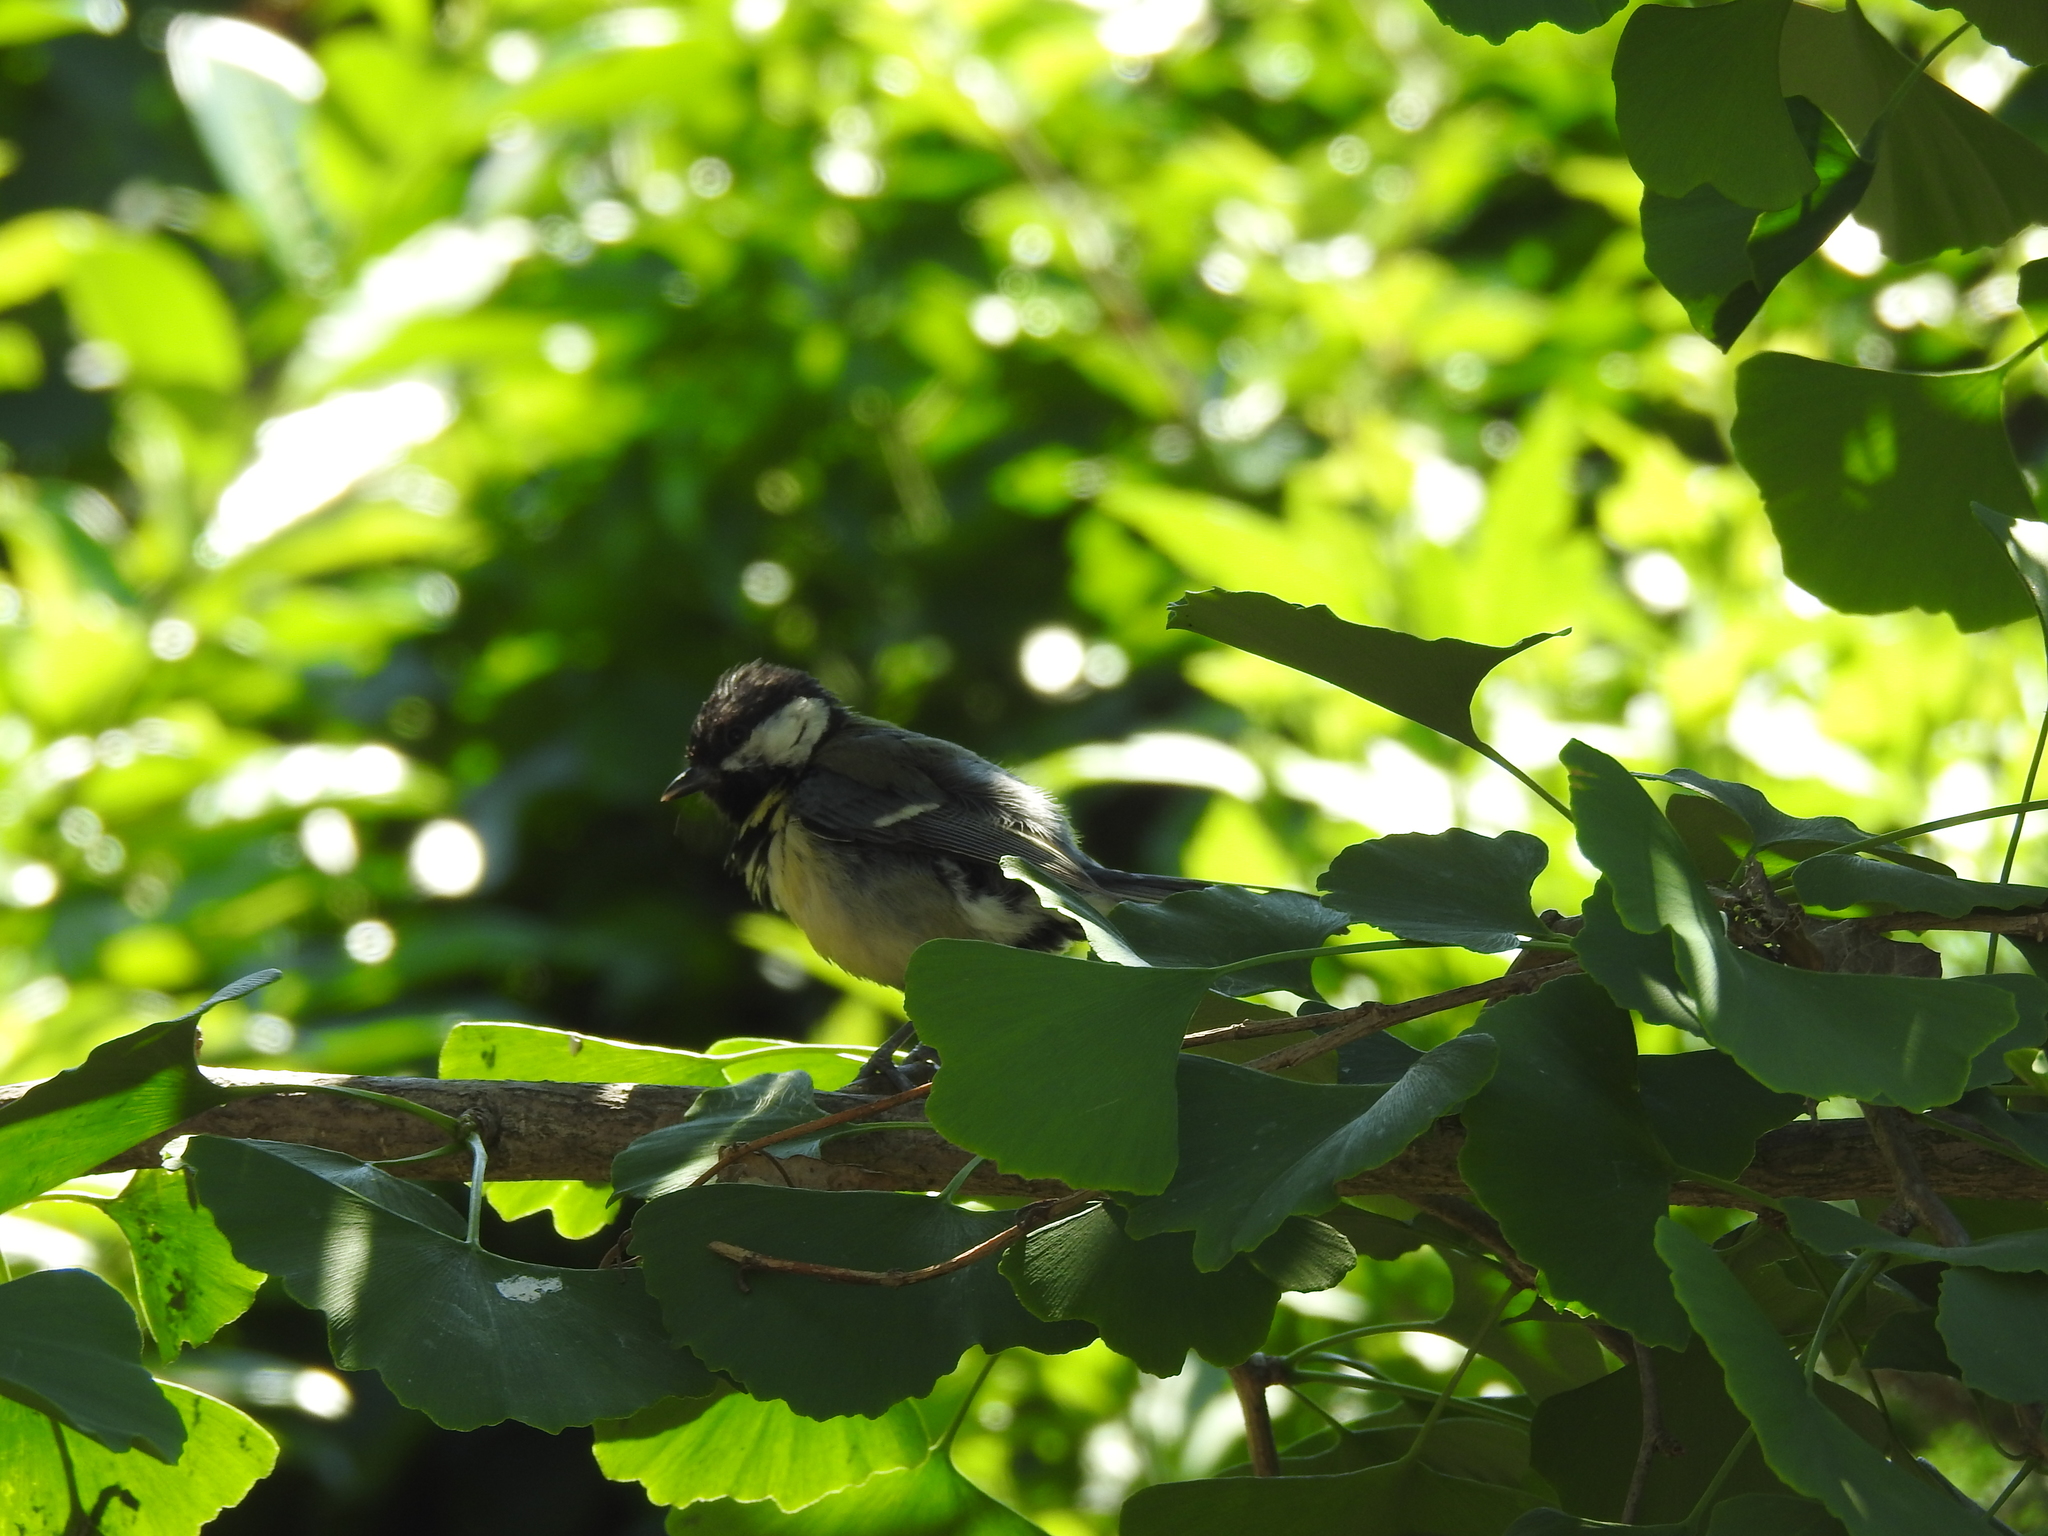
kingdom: Animalia
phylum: Chordata
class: Aves
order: Passeriformes
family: Paridae
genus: Parus
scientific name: Parus major
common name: Great tit
